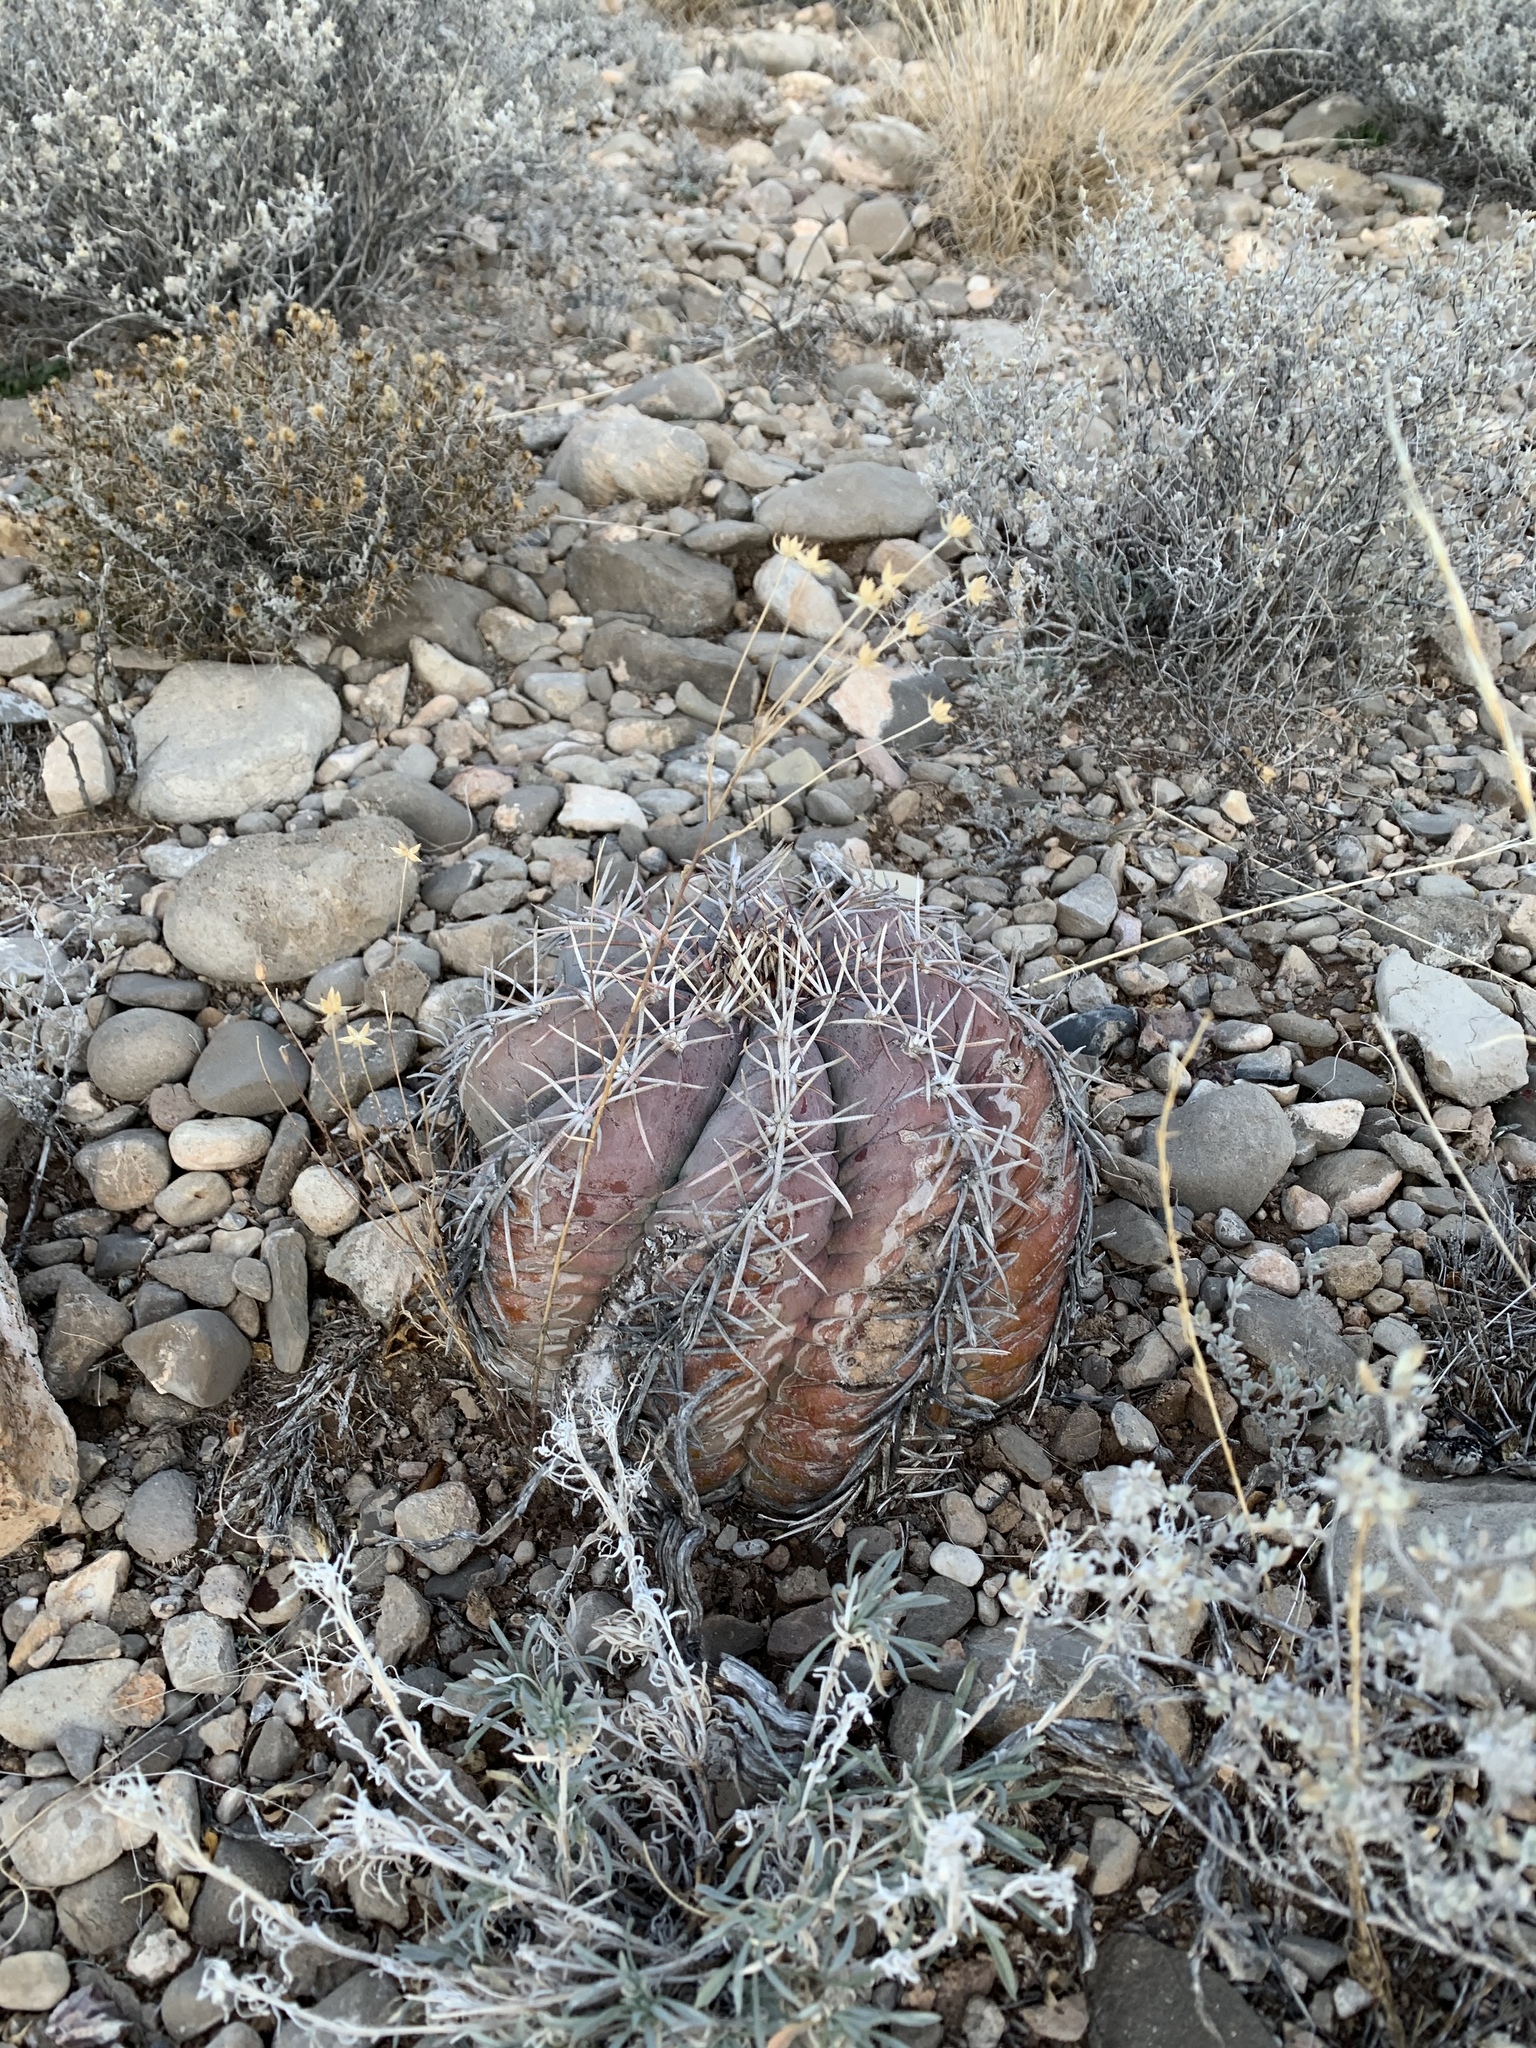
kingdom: Plantae
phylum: Tracheophyta
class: Magnoliopsida
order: Caryophyllales
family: Cactaceae
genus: Echinocactus
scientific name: Echinocactus horizonthalonius
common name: Devilshead
